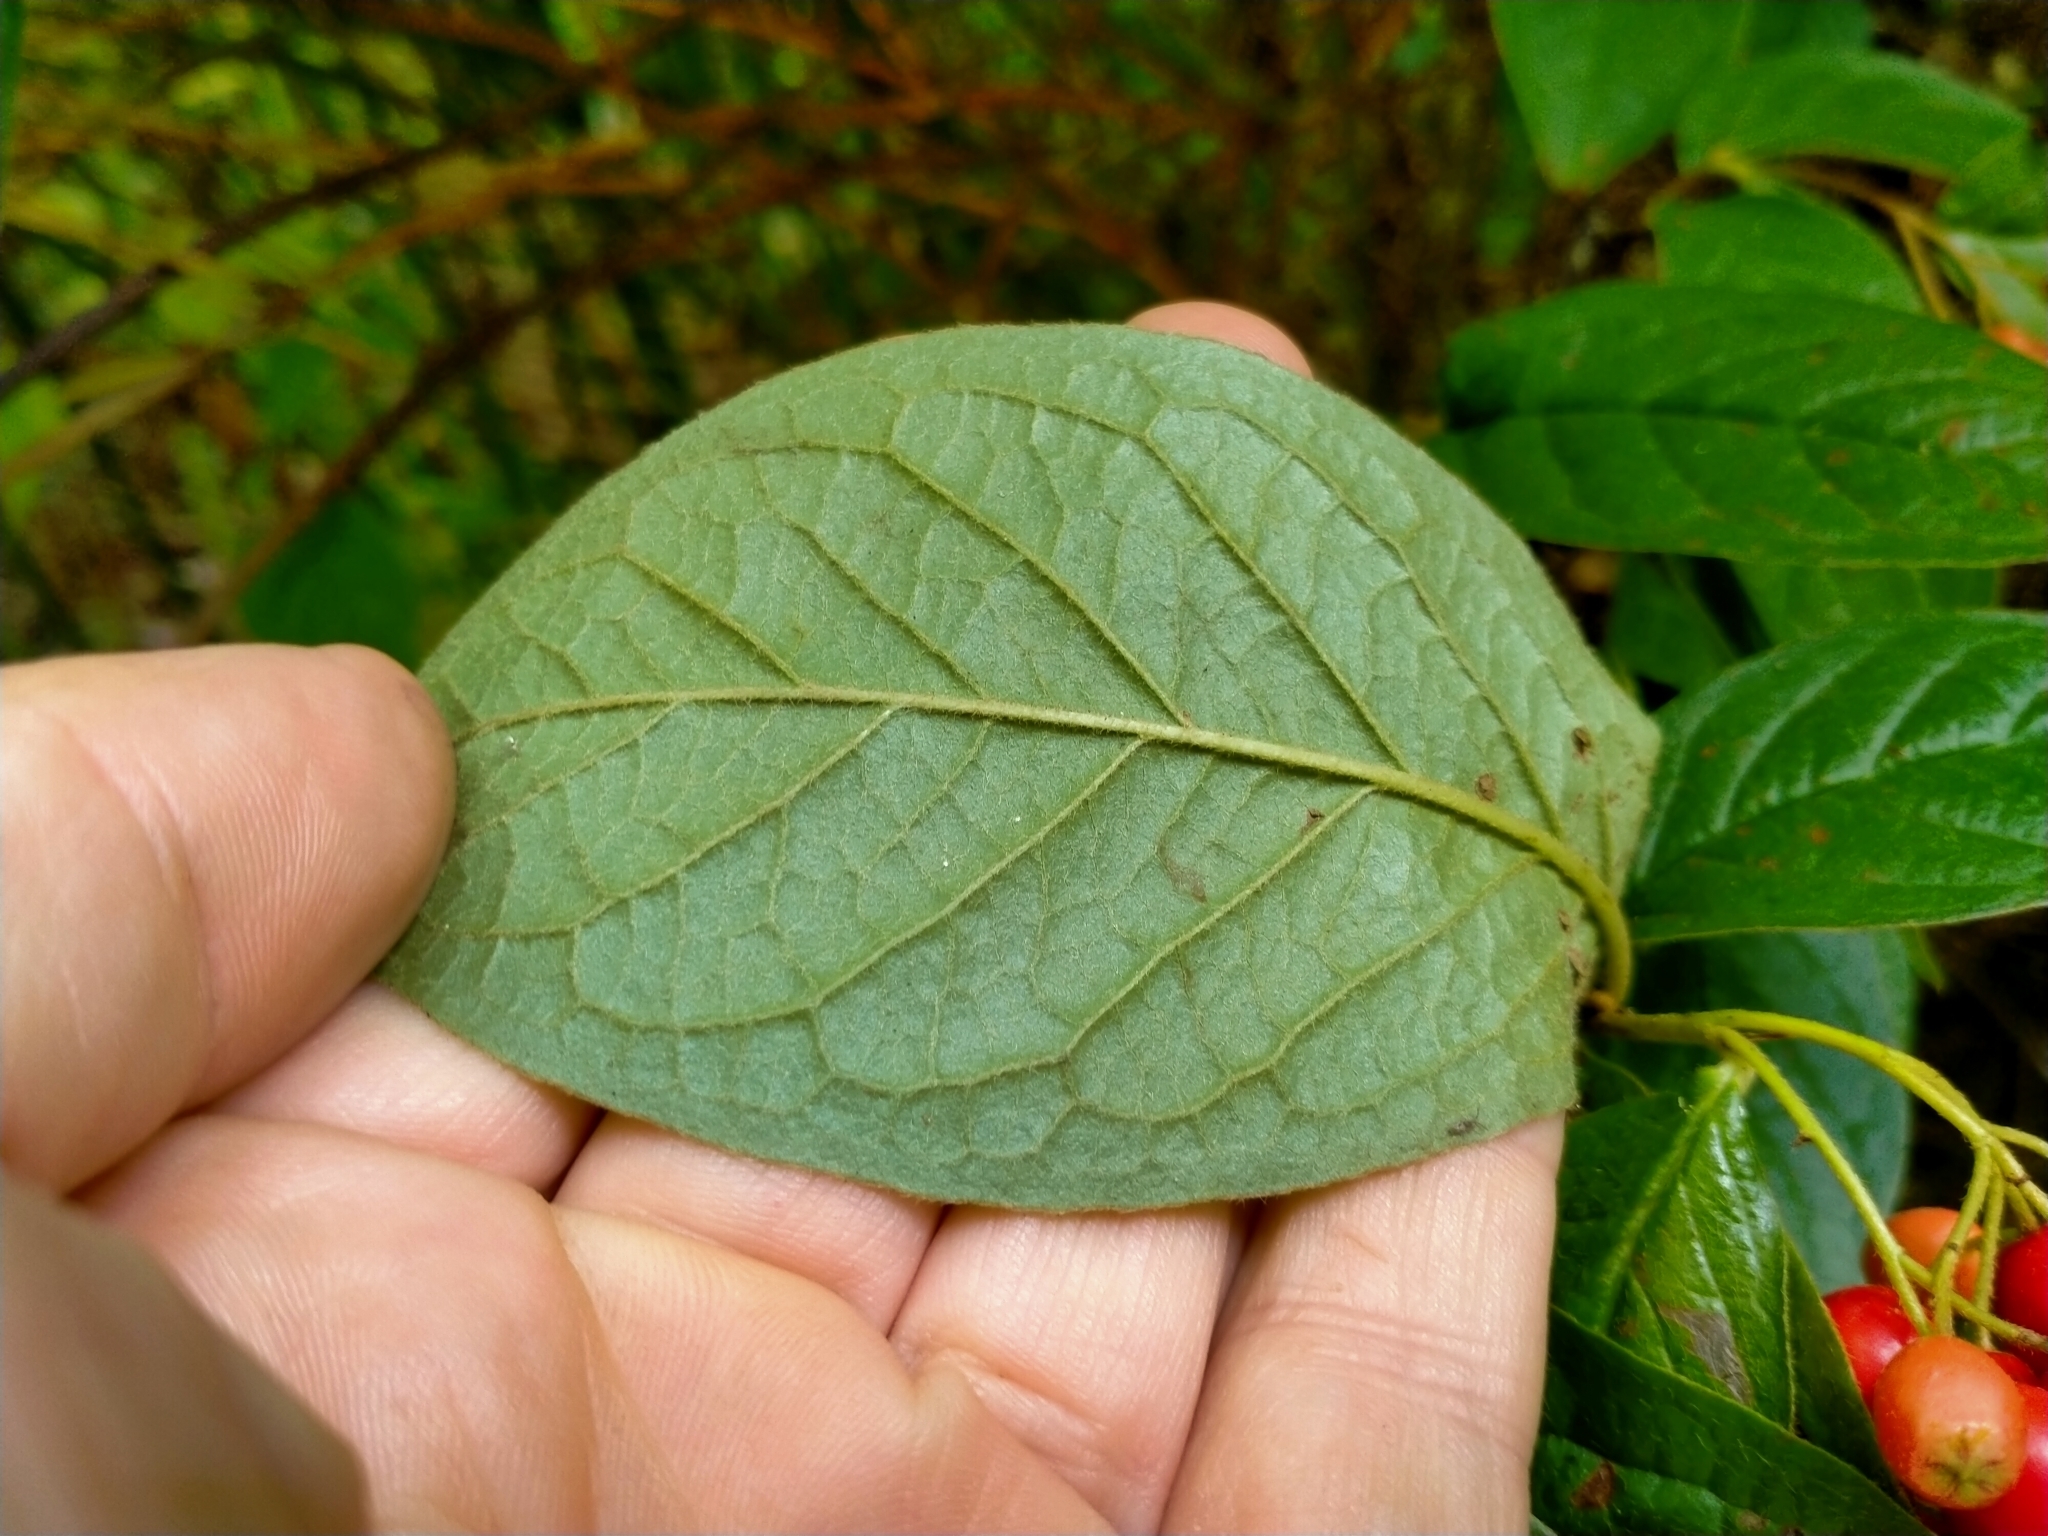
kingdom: Plantae
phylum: Tracheophyta
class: Magnoliopsida
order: Rosales
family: Rosaceae
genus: Cotoneaster
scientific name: Cotoneaster bullatus
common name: Hollyberry cotoneaster
